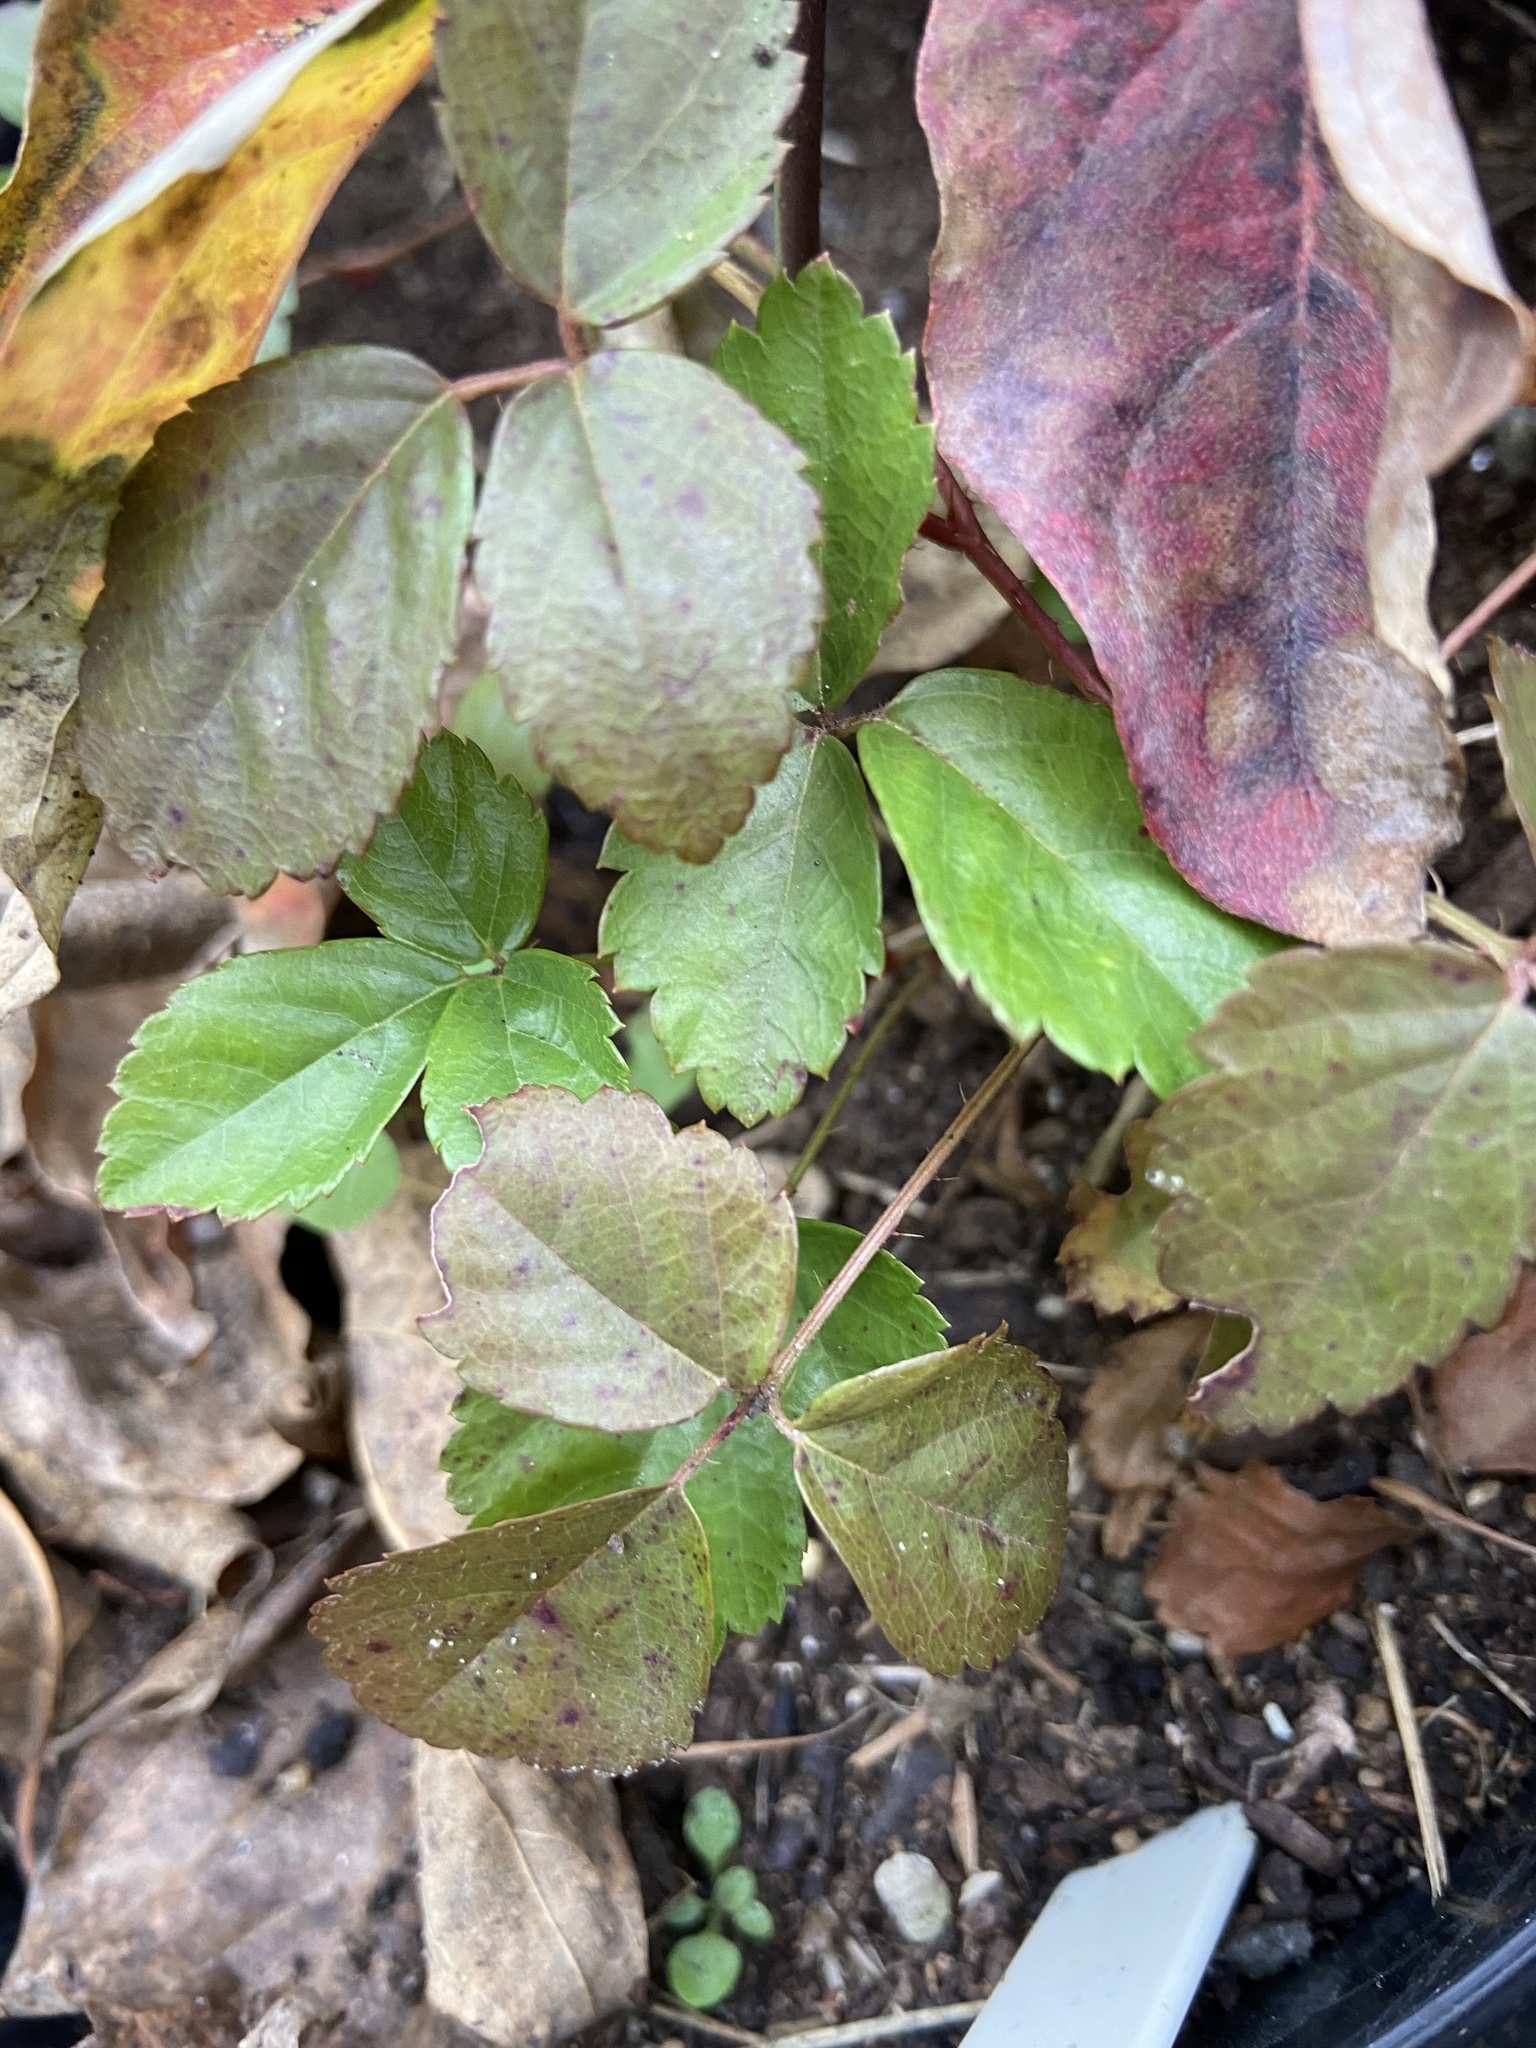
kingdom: Plantae
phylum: Tracheophyta
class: Magnoliopsida
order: Rosales
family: Rosaceae
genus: Rubus
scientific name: Rubus hispidus
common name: Running blackberry
